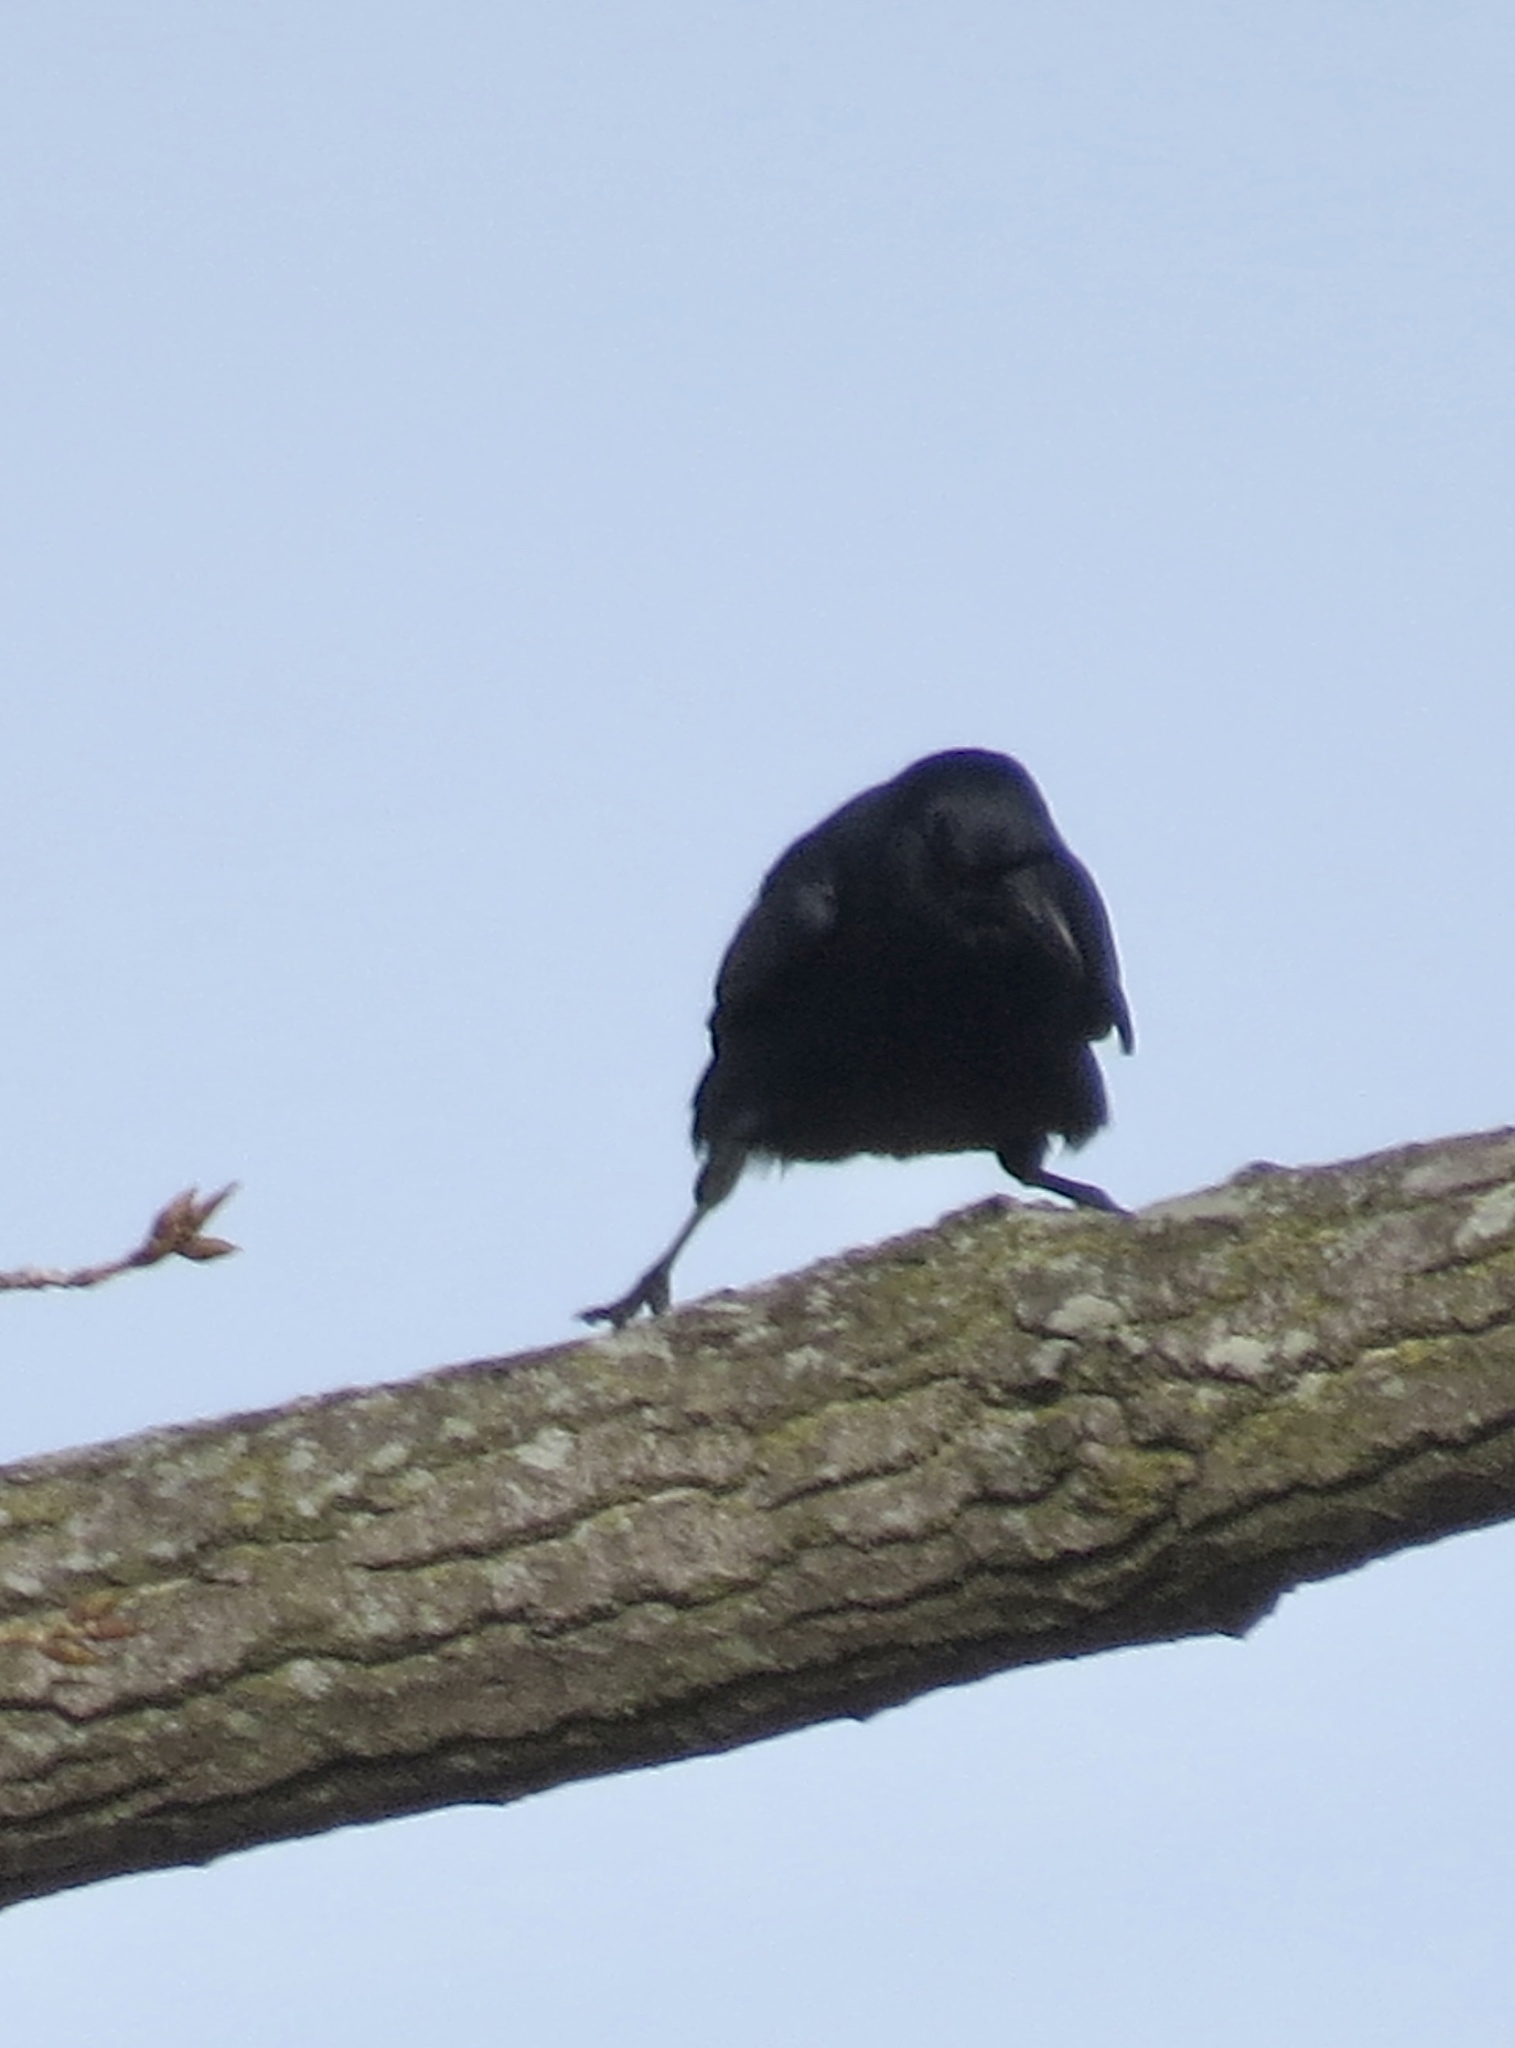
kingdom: Animalia
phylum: Chordata
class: Aves
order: Passeriformes
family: Corvidae
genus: Corvus
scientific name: Corvus
